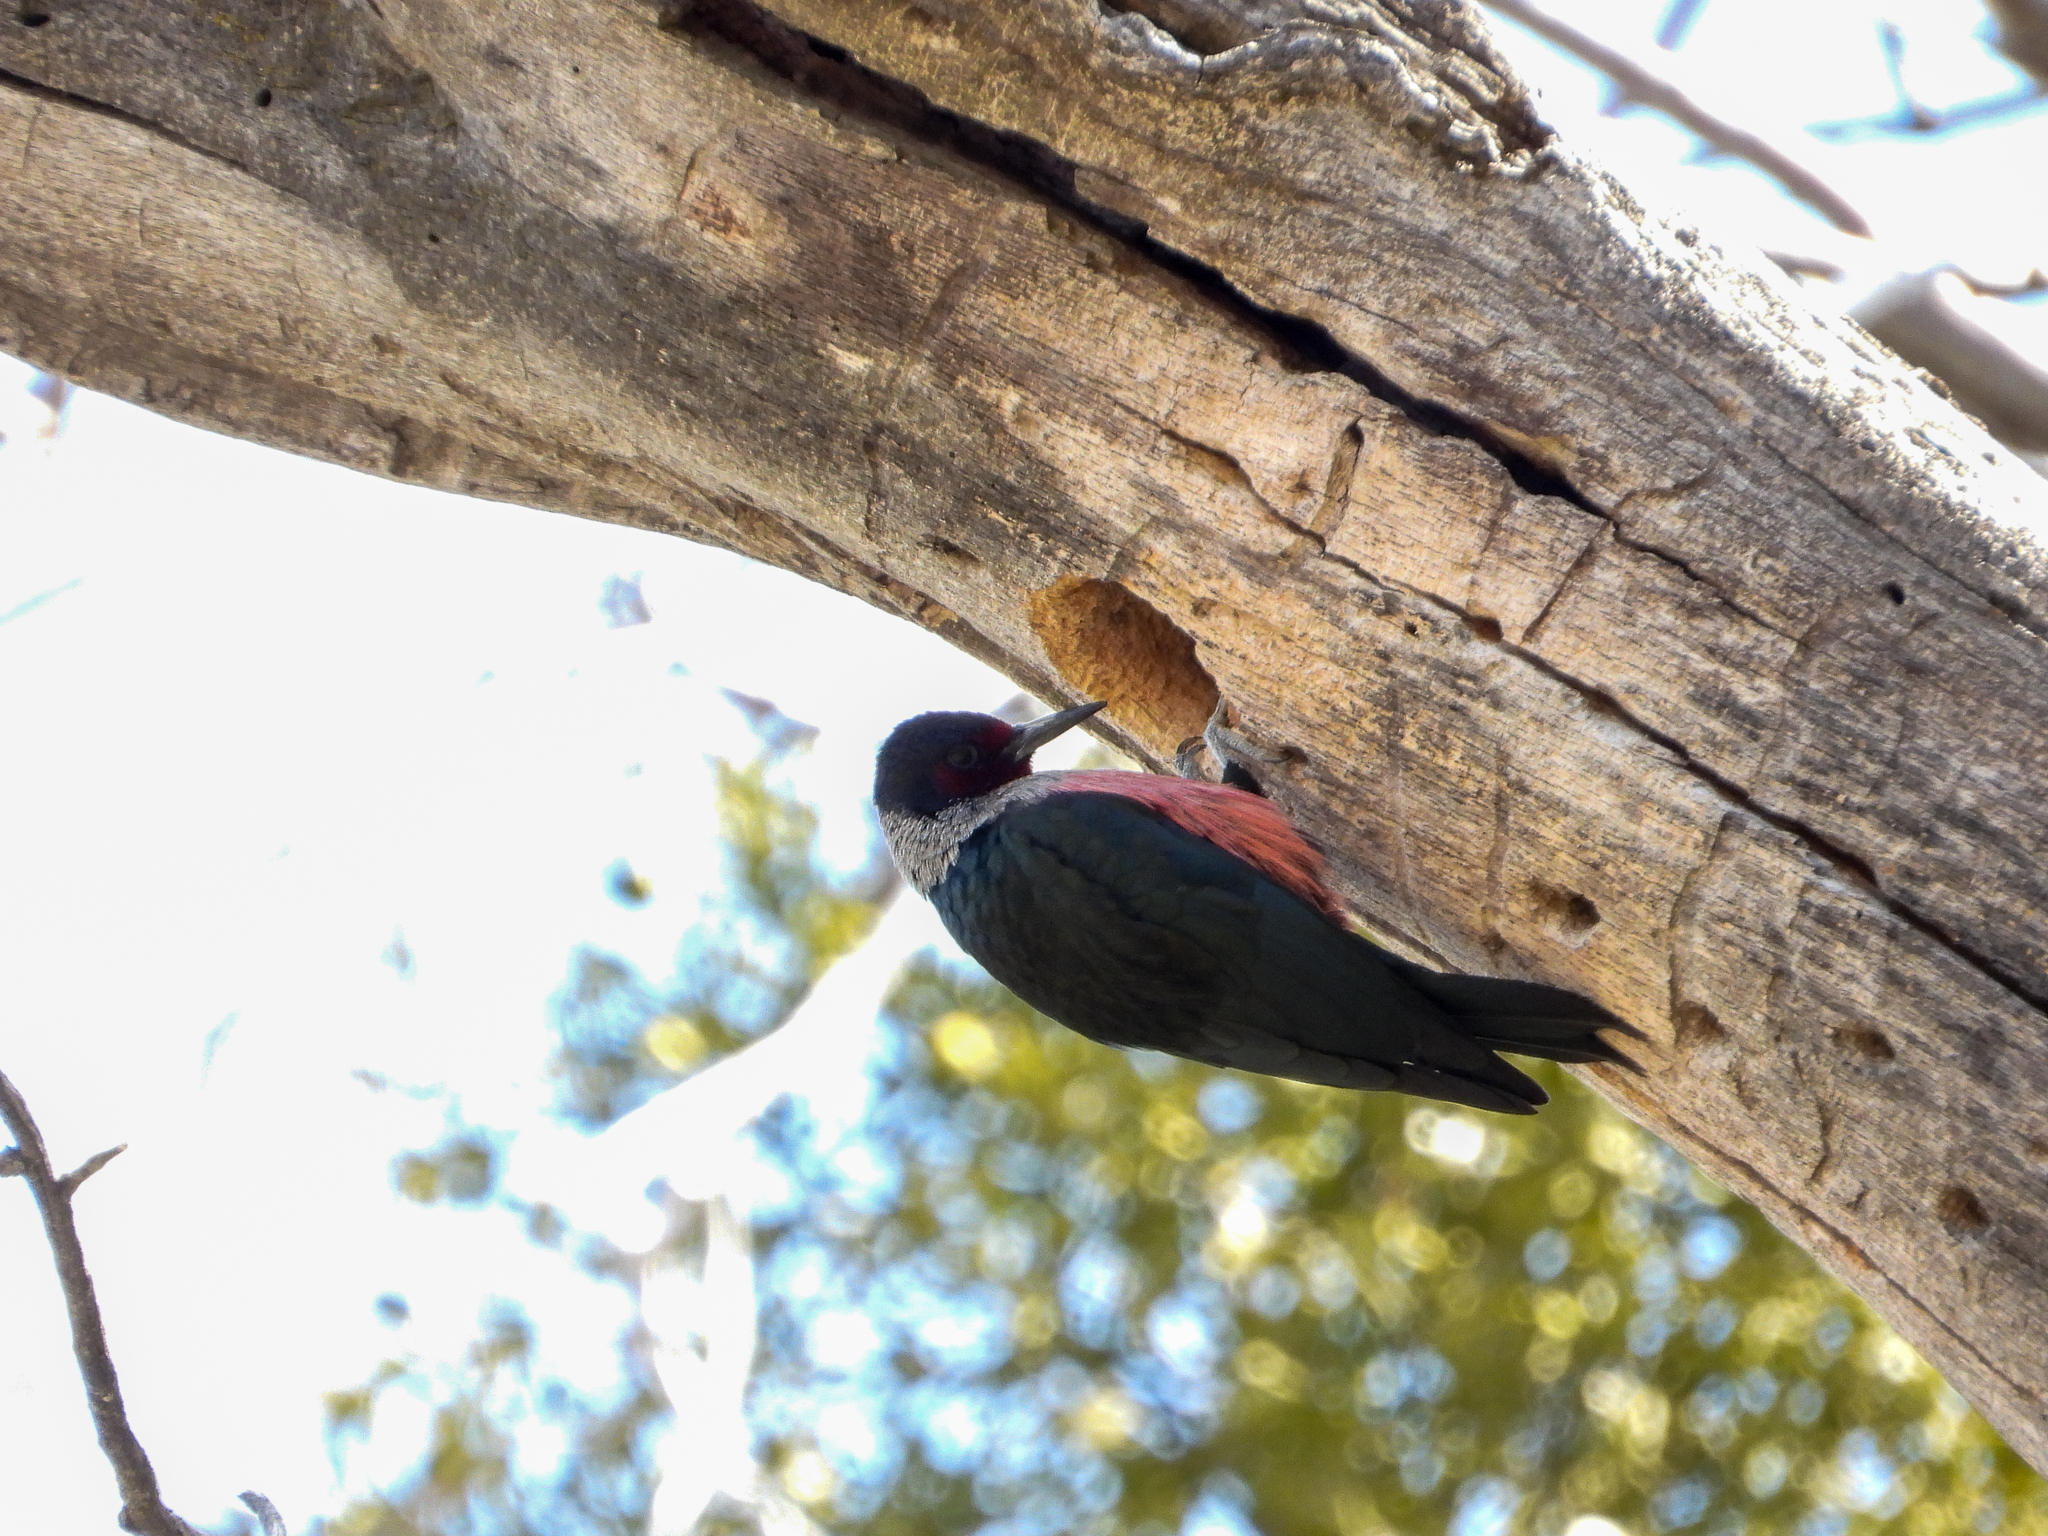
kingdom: Animalia
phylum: Chordata
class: Aves
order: Piciformes
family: Picidae
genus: Melanerpes
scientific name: Melanerpes lewis
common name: Lewis's woodpecker
